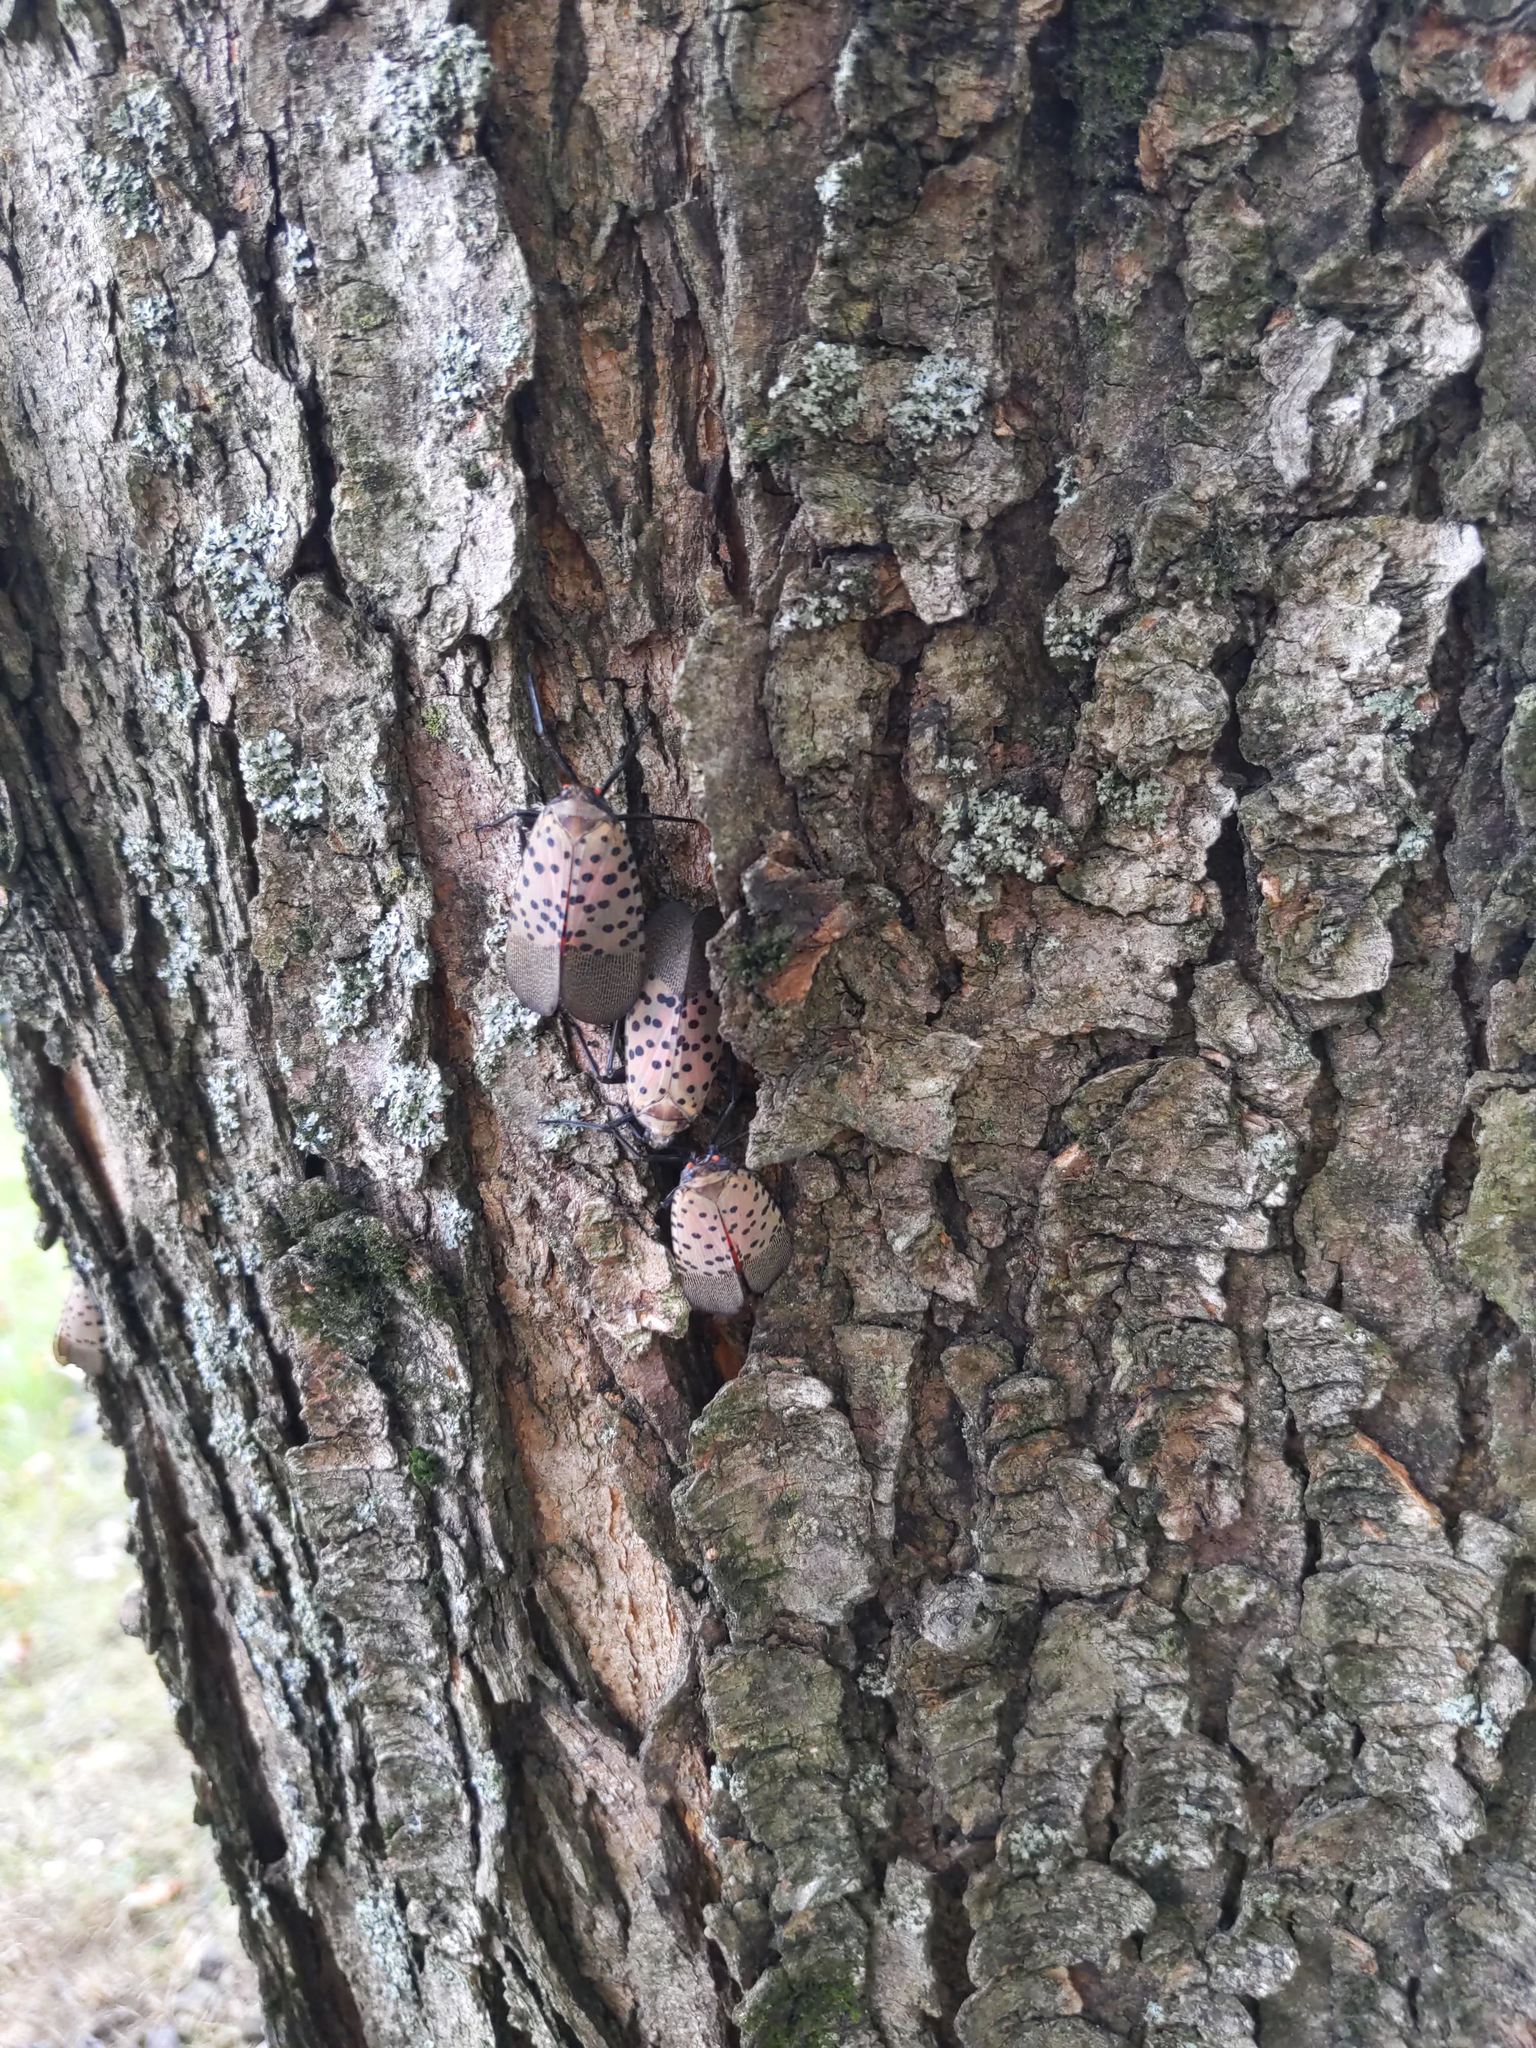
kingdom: Animalia
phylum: Arthropoda
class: Insecta
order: Hemiptera
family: Fulgoridae
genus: Lycorma
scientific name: Lycorma delicatula
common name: Spotted lanternfly
